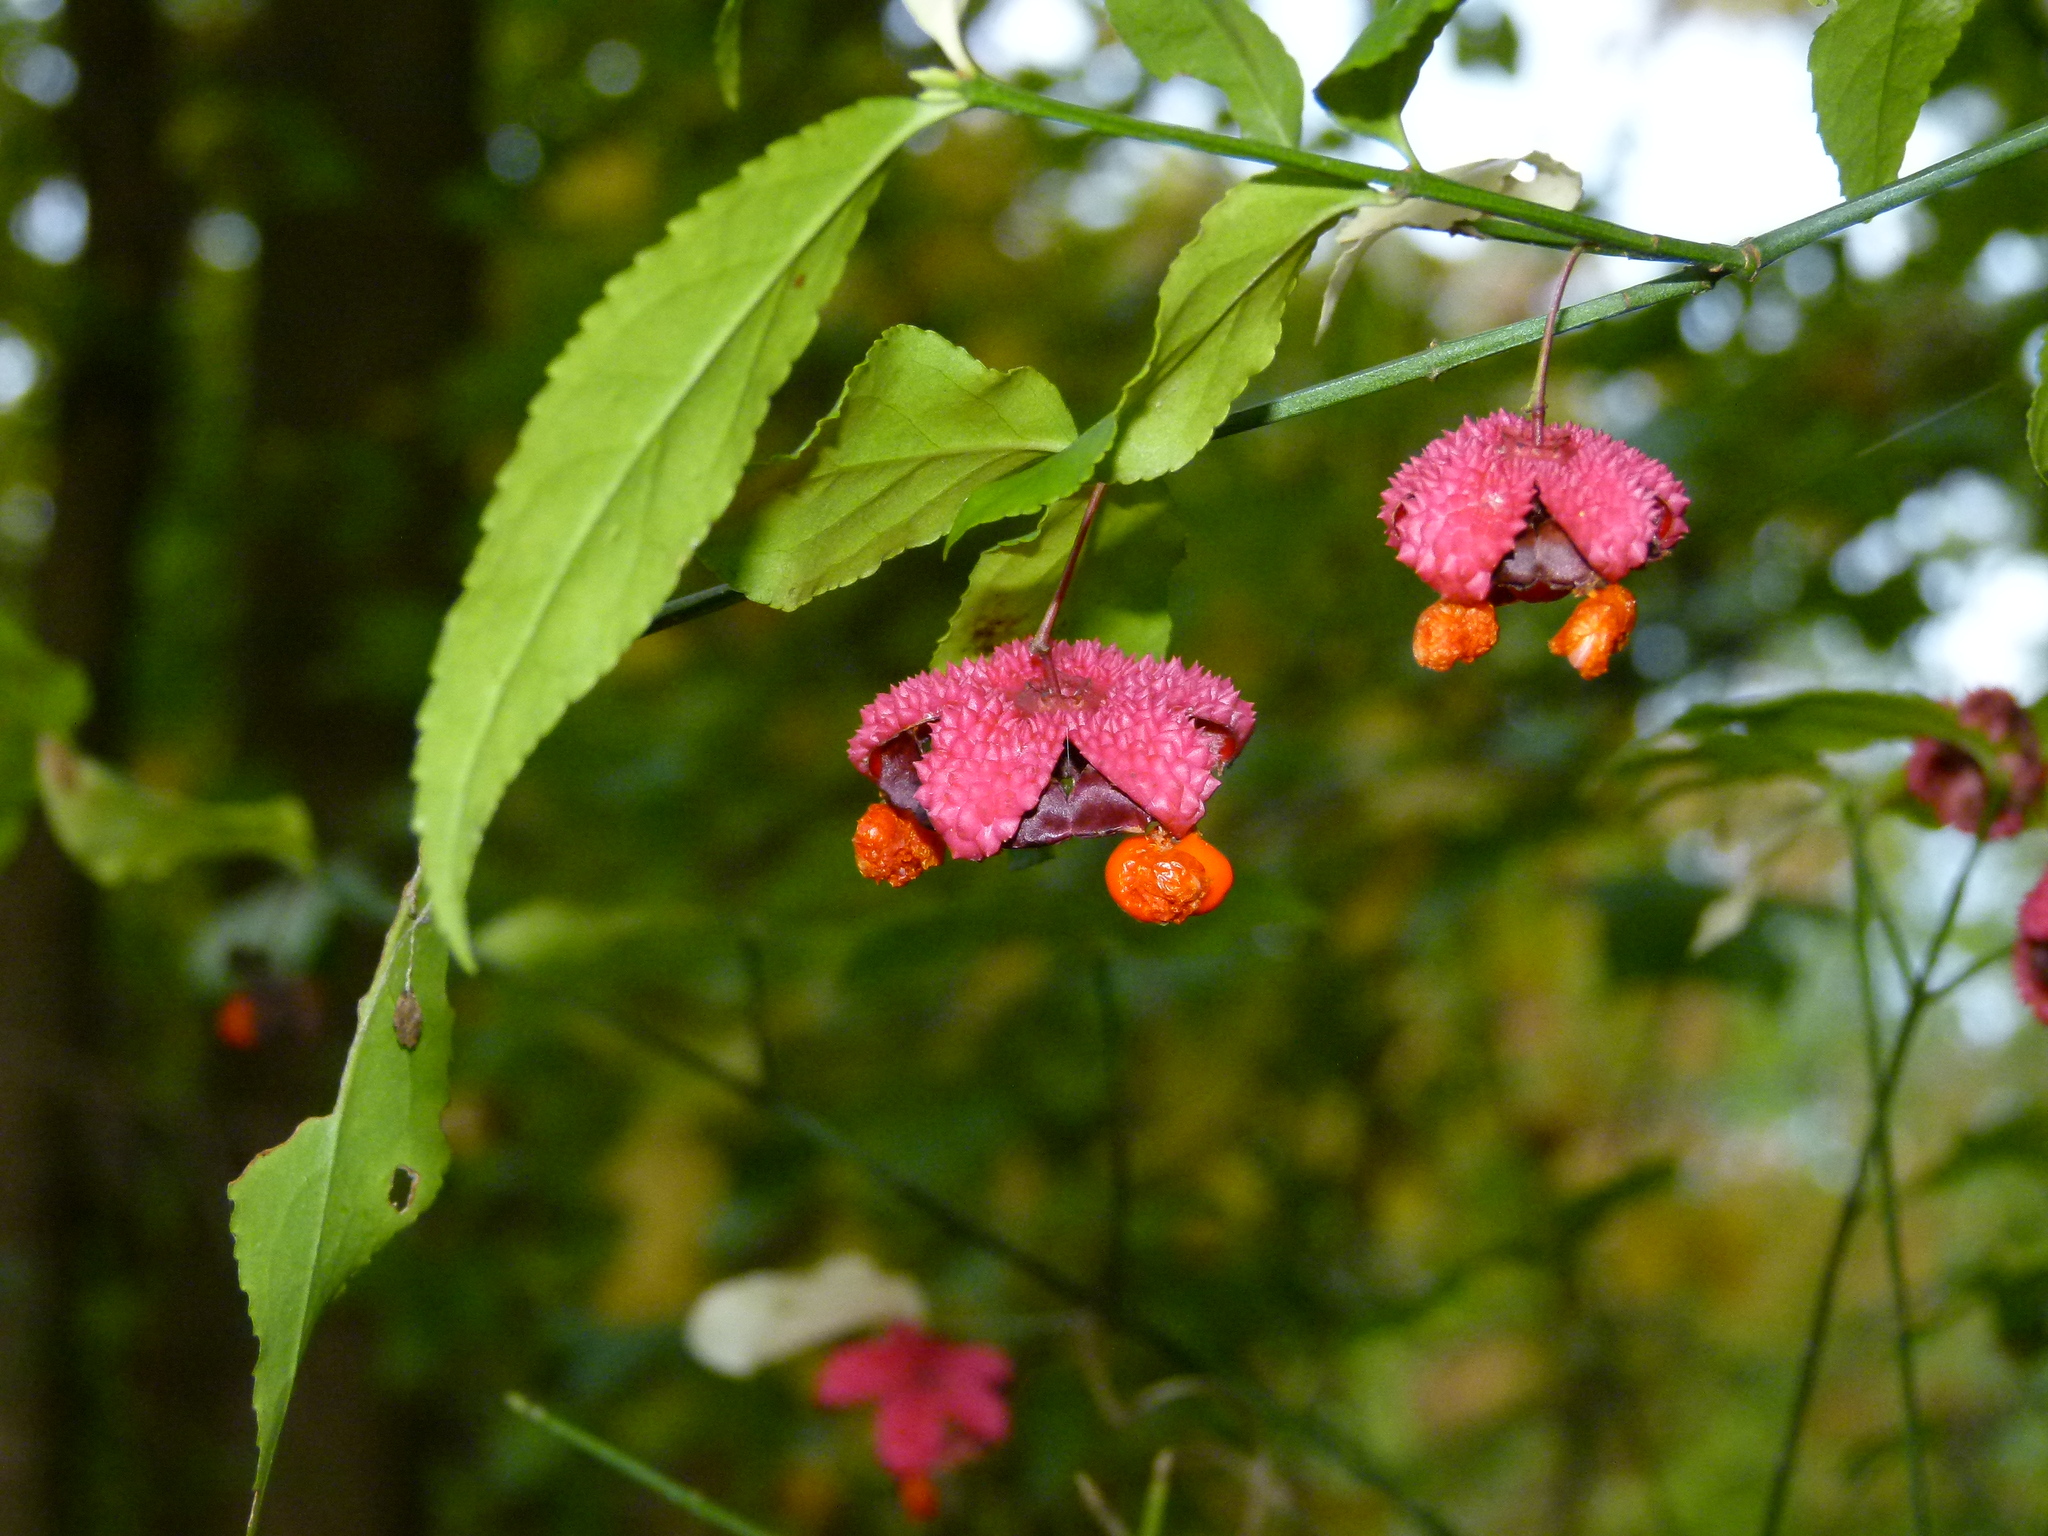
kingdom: Plantae
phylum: Tracheophyta
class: Magnoliopsida
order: Celastrales
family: Celastraceae
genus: Euonymus
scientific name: Euonymus americanus
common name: Bursting-heart
